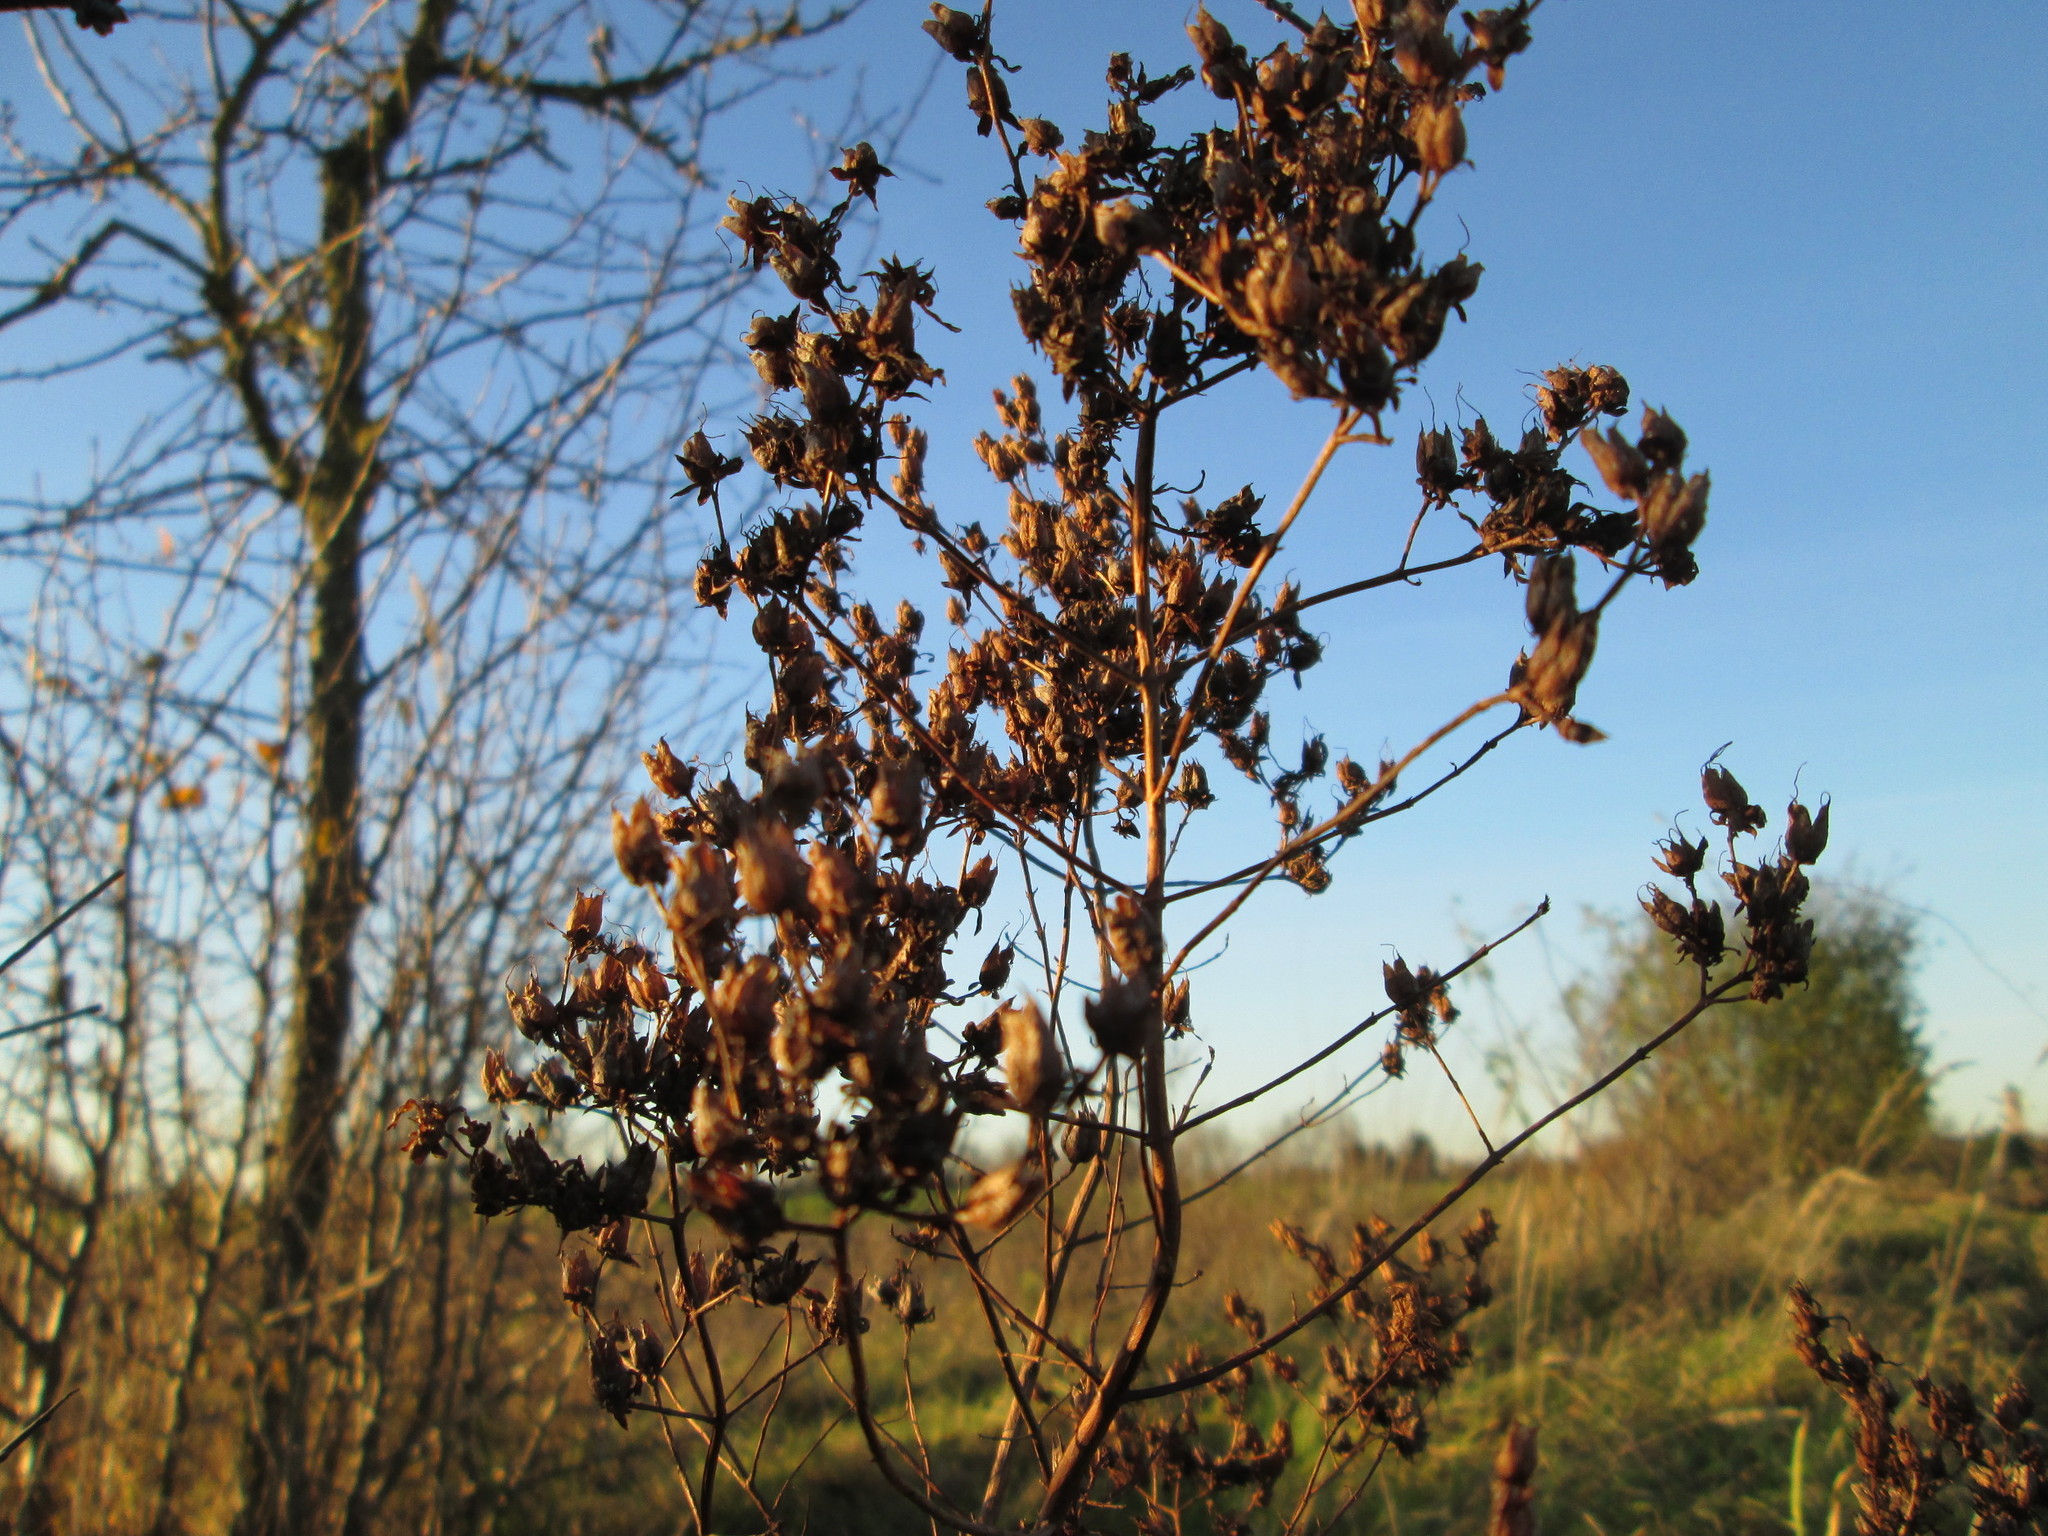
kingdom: Plantae
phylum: Tracheophyta
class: Magnoliopsida
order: Malpighiales
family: Hypericaceae
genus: Hypericum
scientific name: Hypericum perforatum
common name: Common st. johnswort
